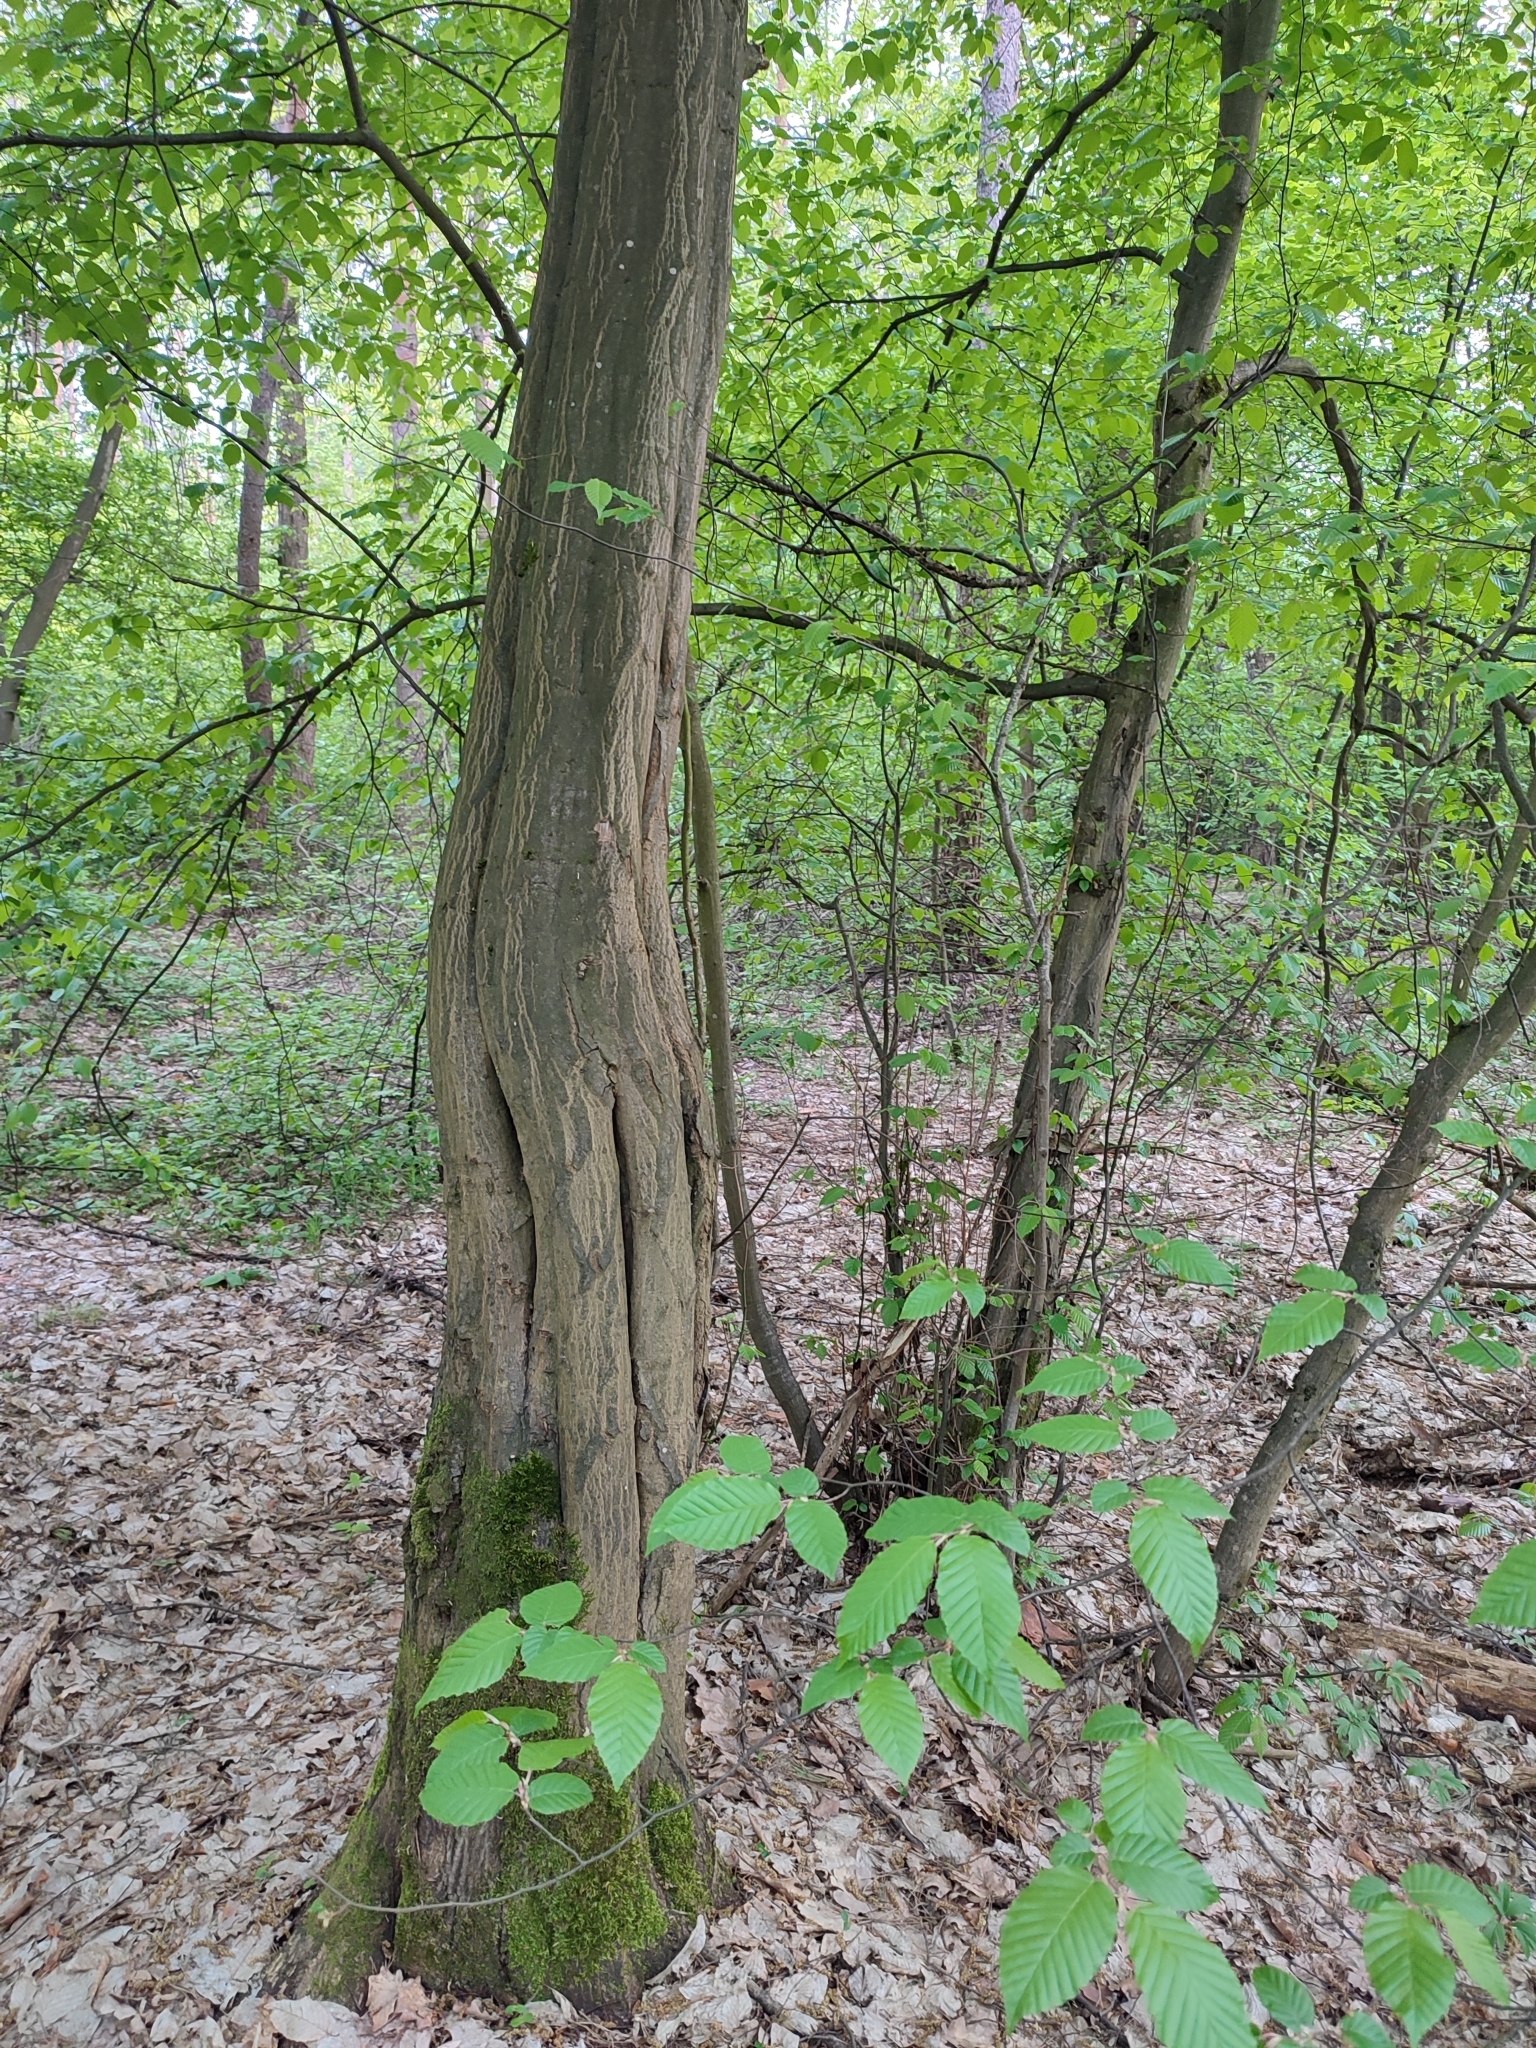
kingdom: Plantae
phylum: Tracheophyta
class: Magnoliopsida
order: Fagales
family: Betulaceae
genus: Carpinus
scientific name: Carpinus betulus
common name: Hornbeam
